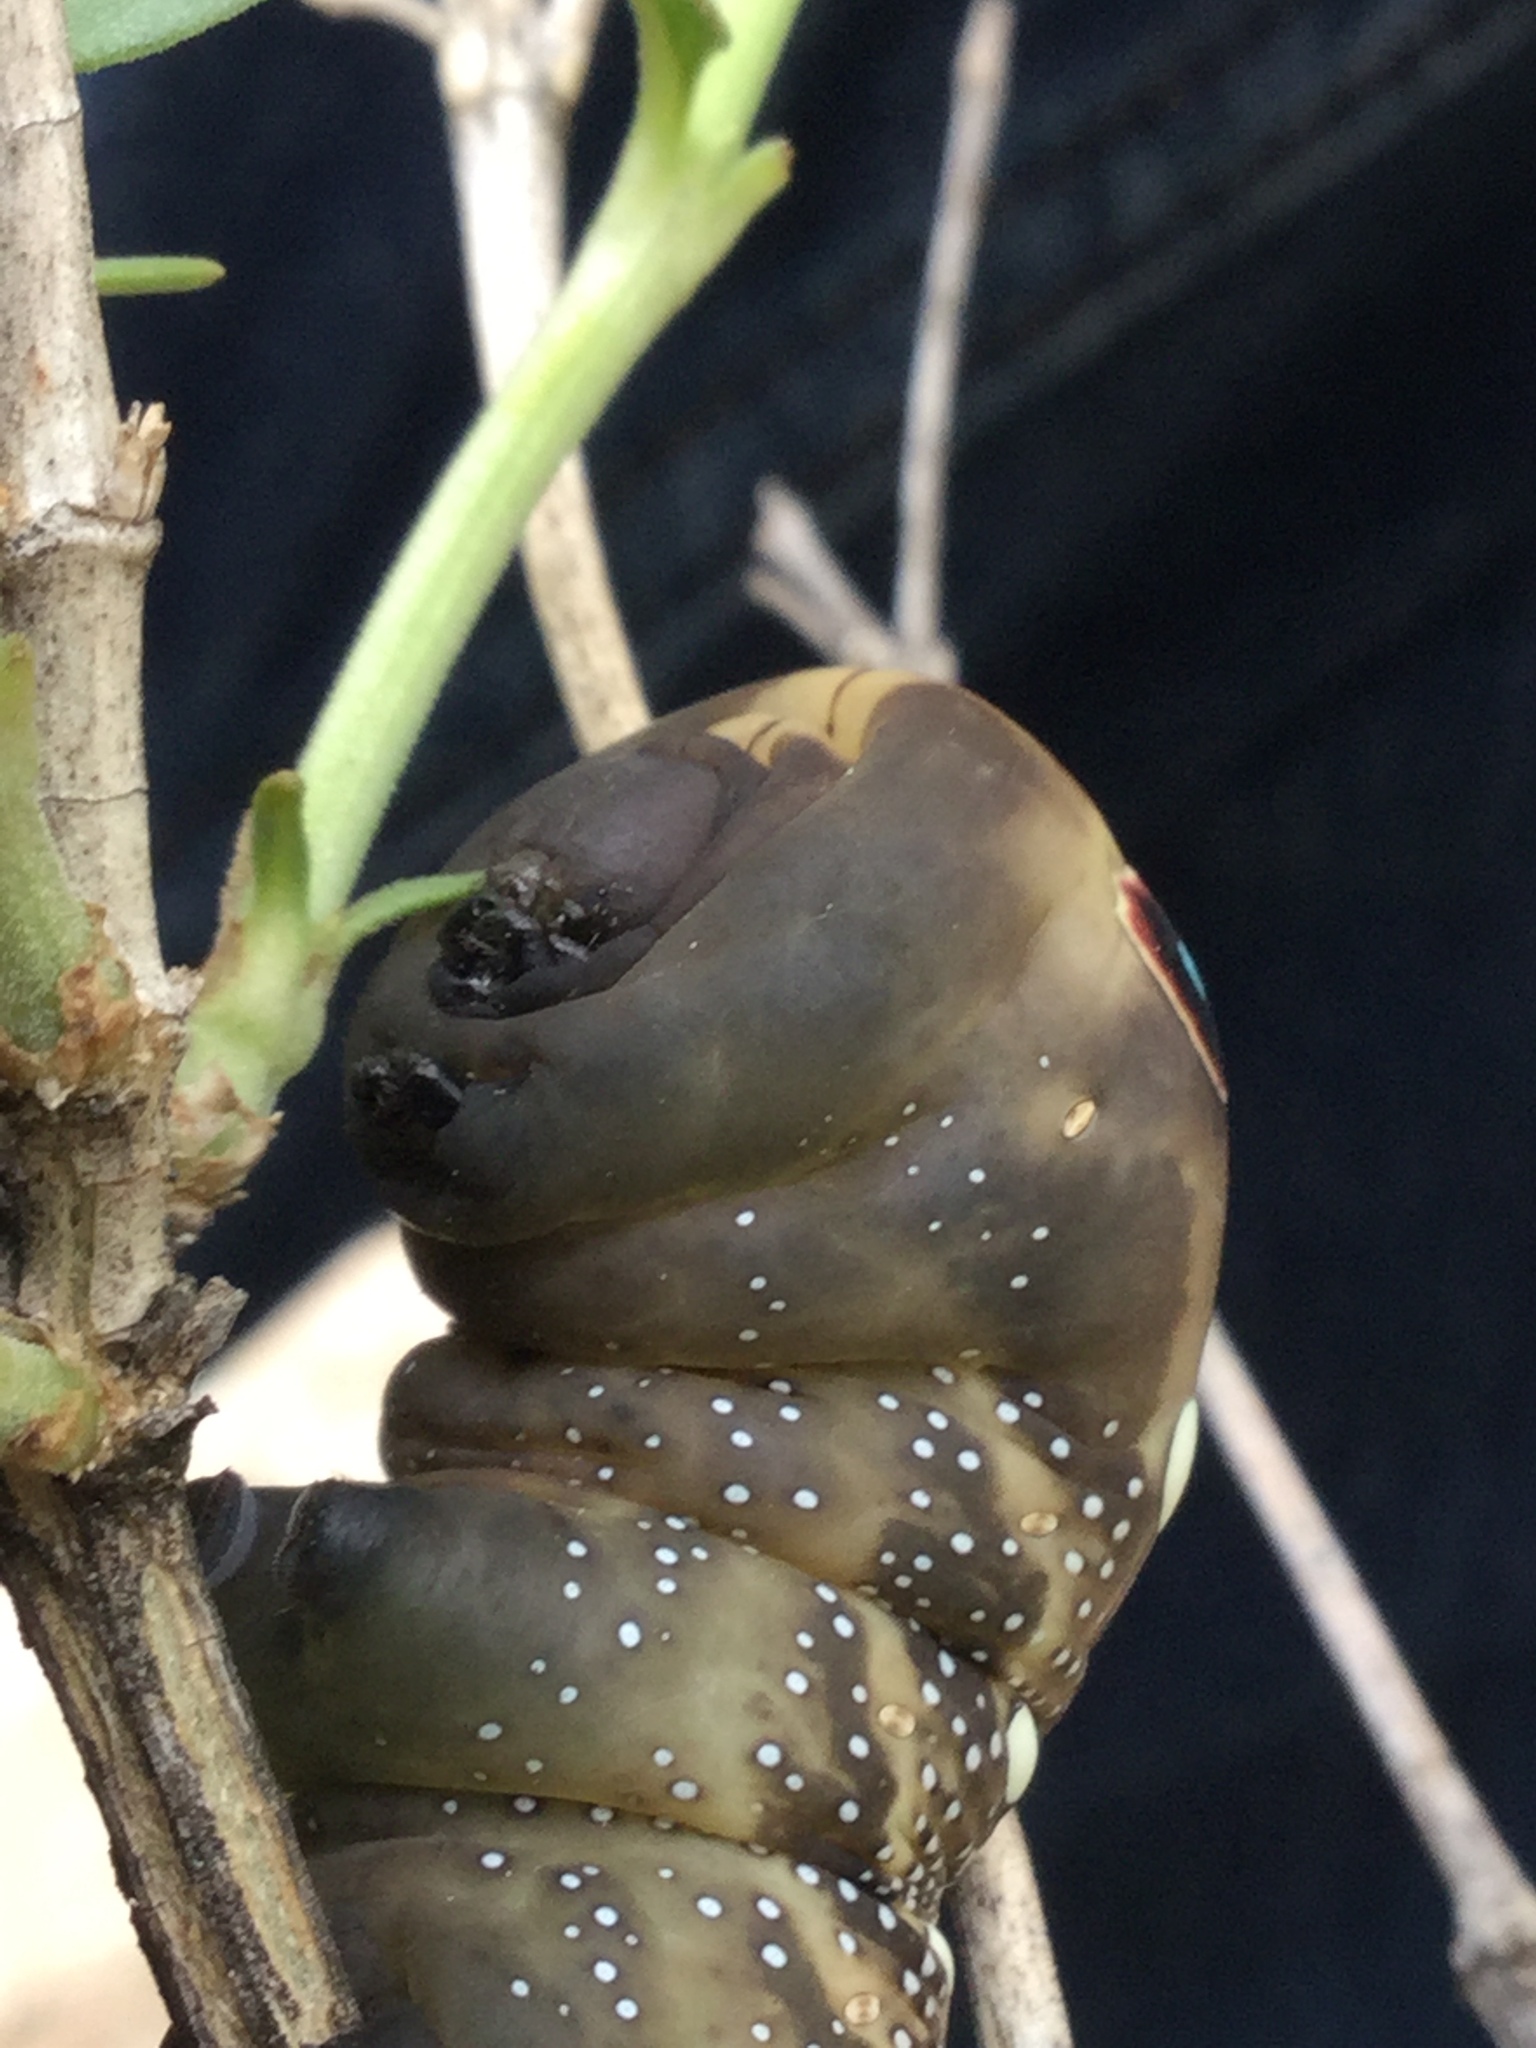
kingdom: Animalia
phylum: Arthropoda
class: Insecta
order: Lepidoptera
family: Sphingidae
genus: Xylophanes
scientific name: Xylophanes falco
